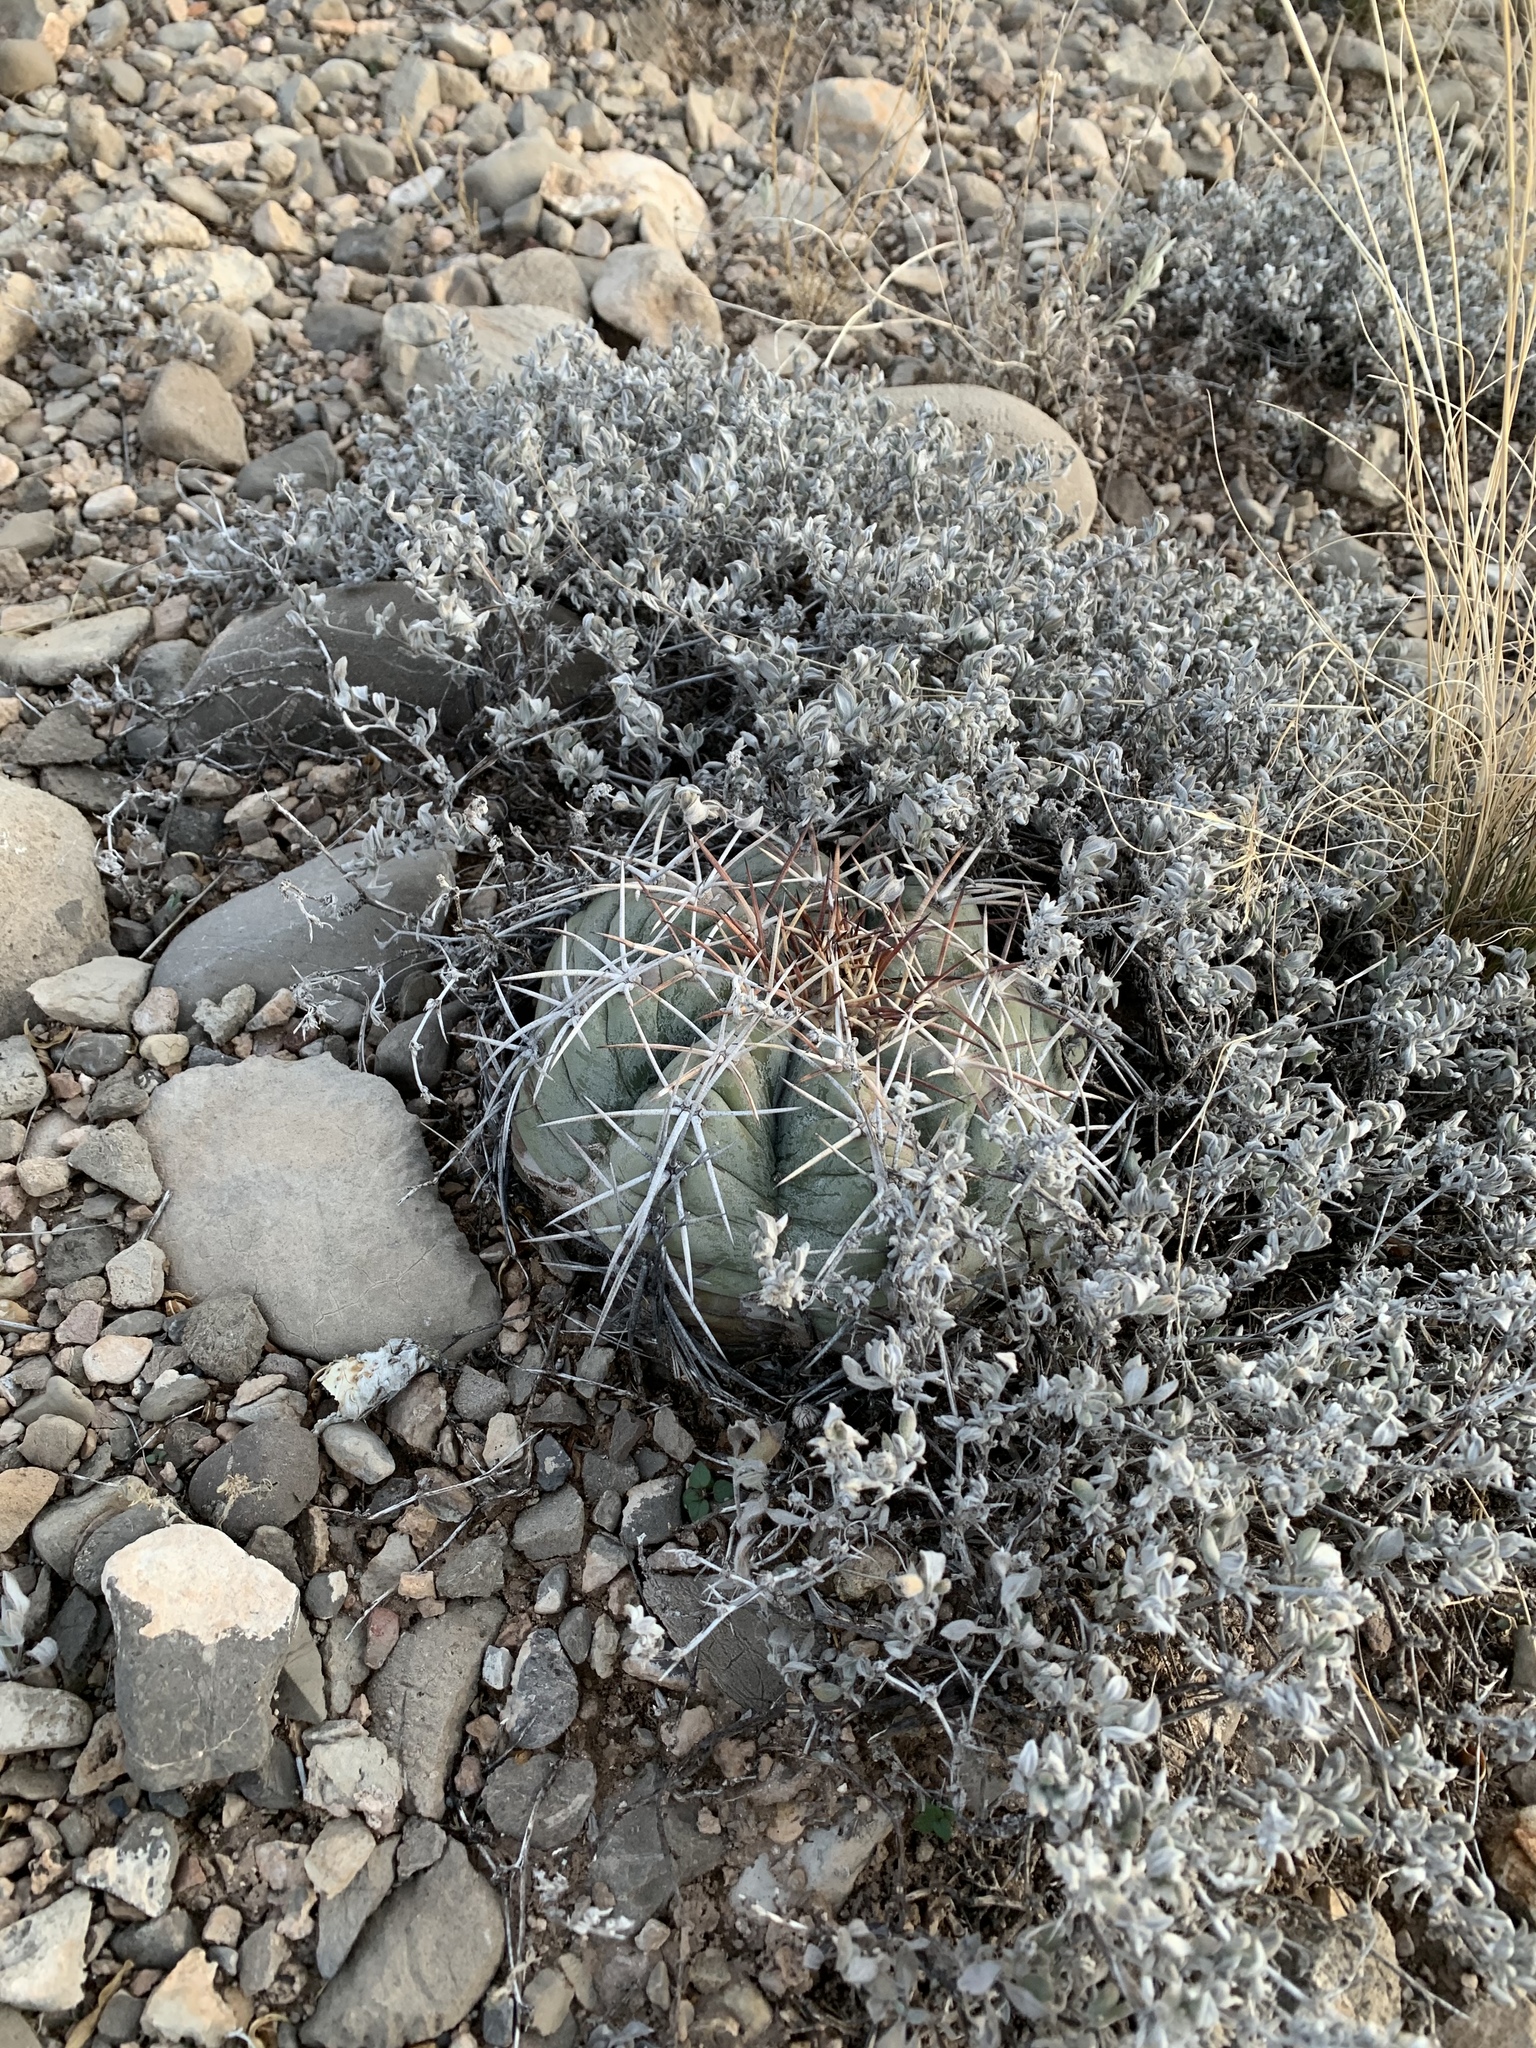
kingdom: Plantae
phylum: Tracheophyta
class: Magnoliopsida
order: Caryophyllales
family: Cactaceae
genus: Echinocactus
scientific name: Echinocactus horizonthalonius
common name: Devilshead
